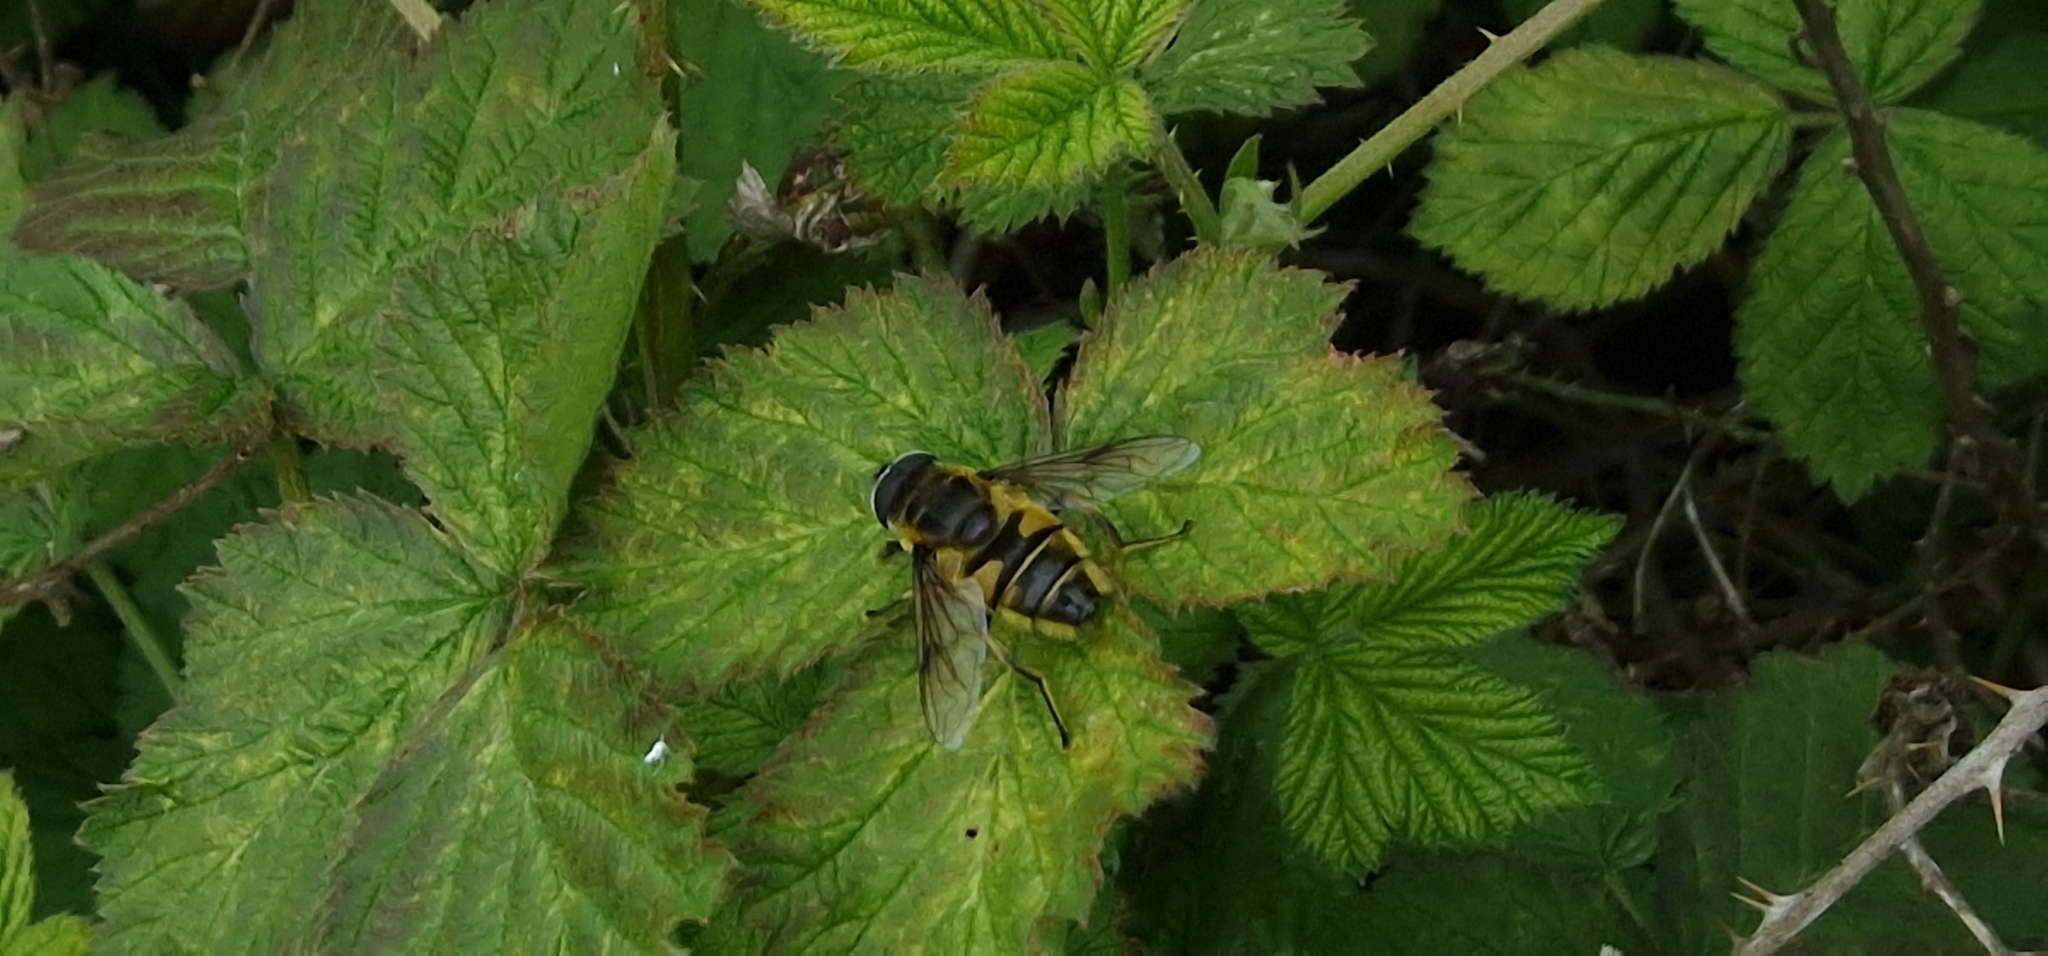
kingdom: Animalia
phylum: Arthropoda
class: Insecta
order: Diptera
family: Syrphidae
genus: Myathropa
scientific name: Myathropa florea
